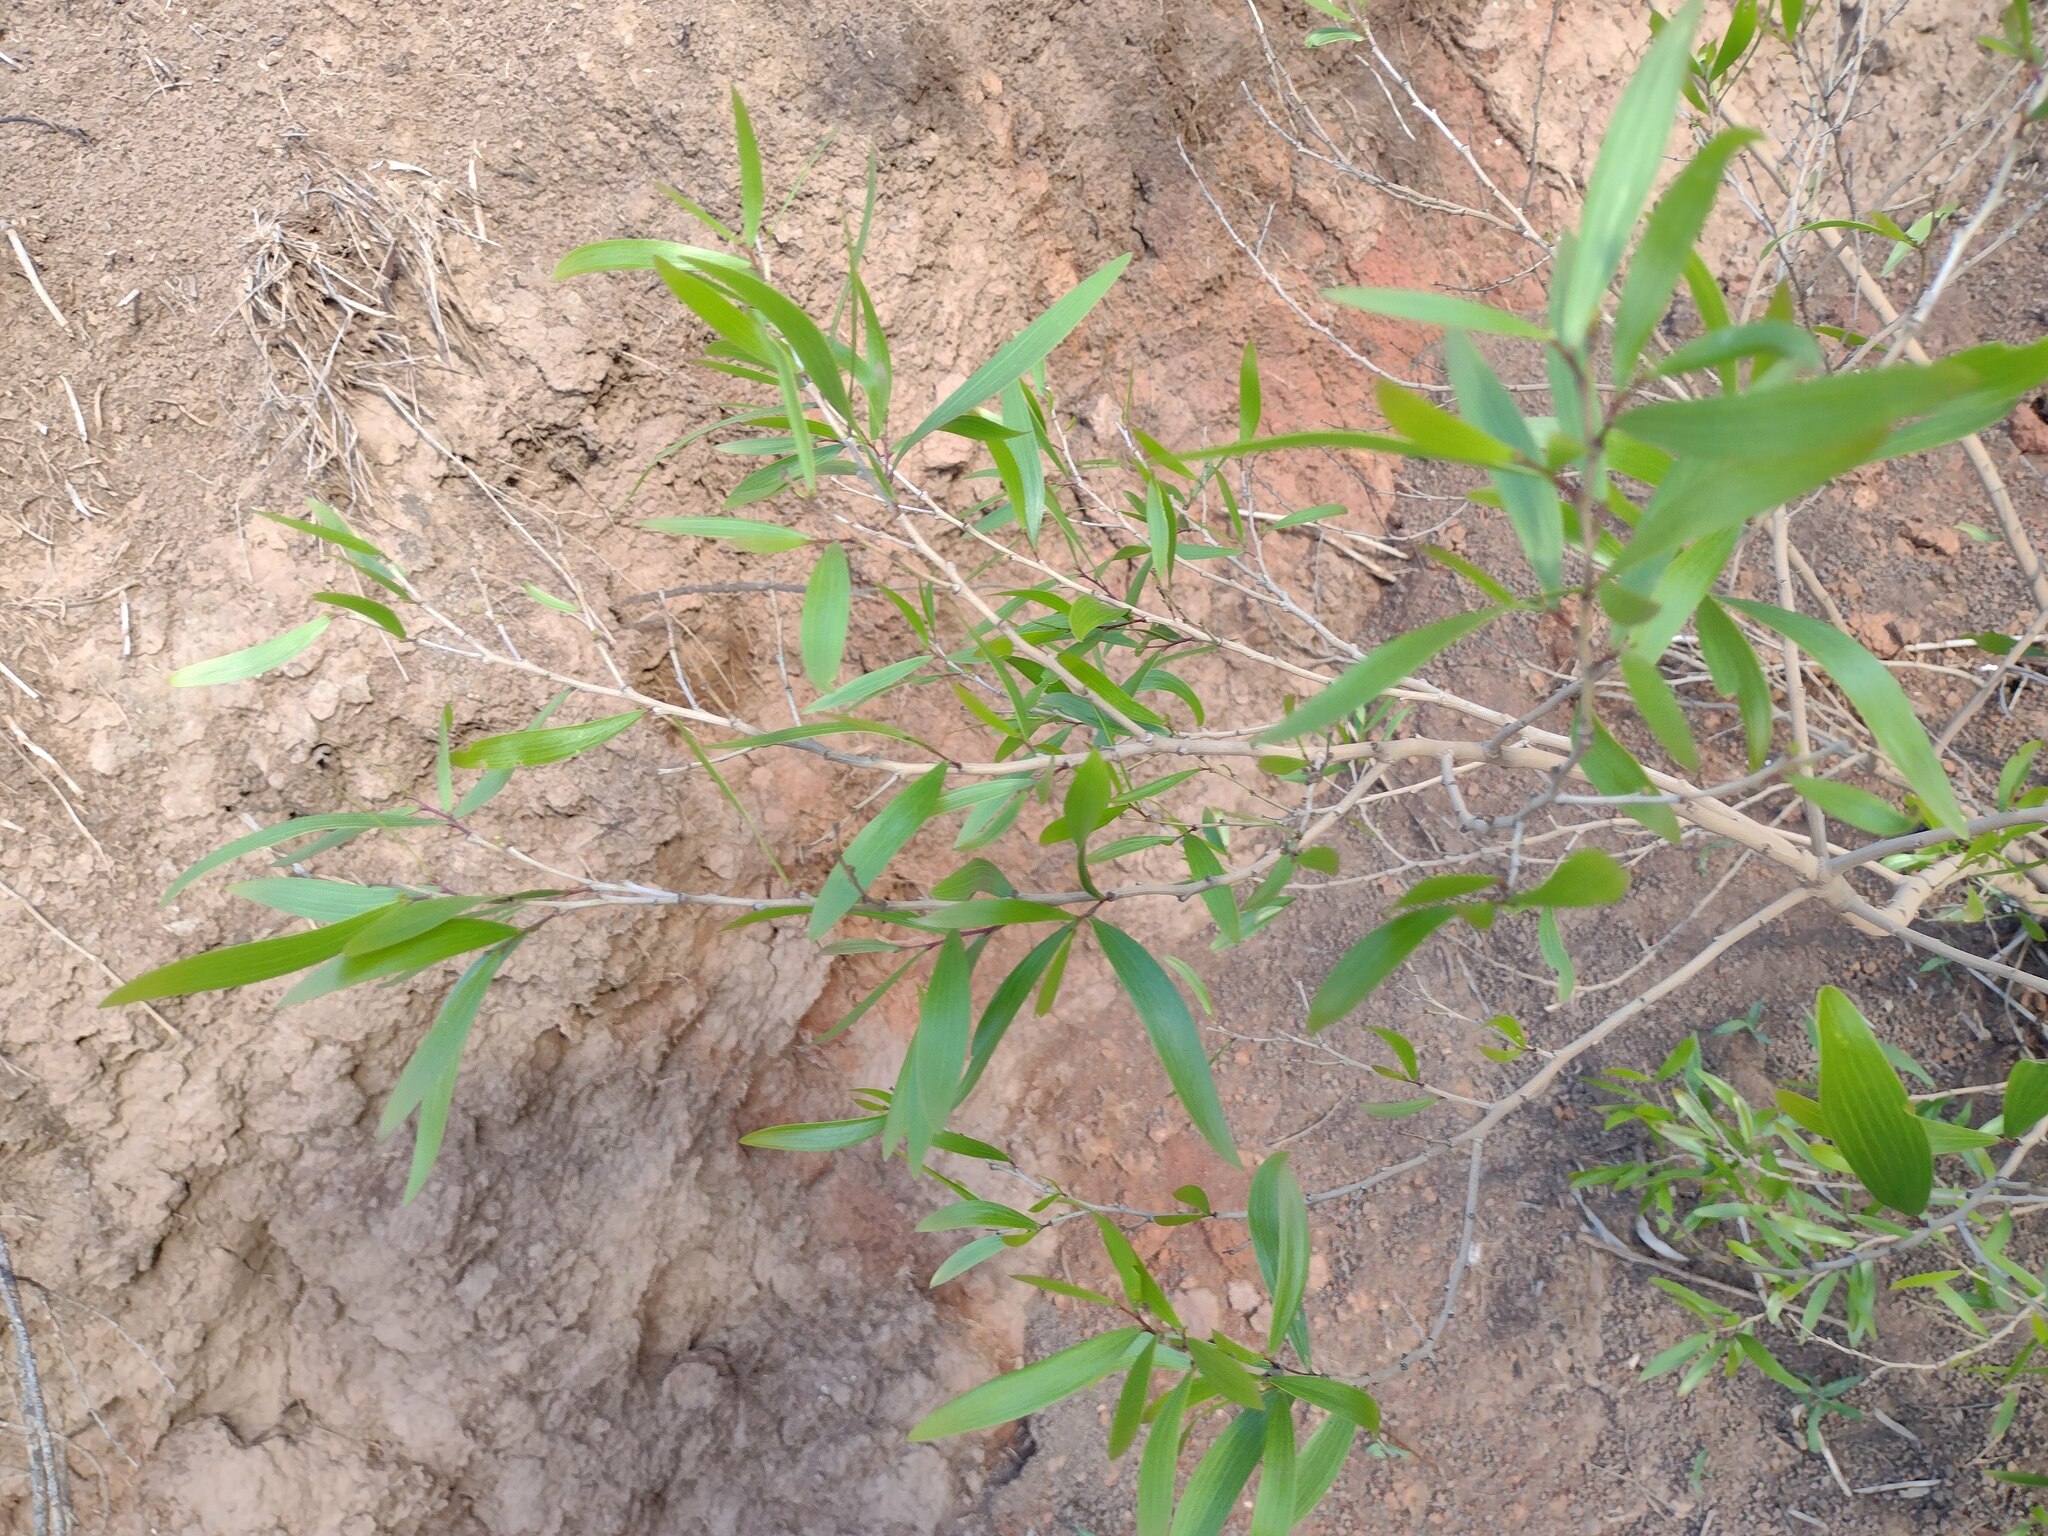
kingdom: Plantae
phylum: Tracheophyta
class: Magnoliopsida
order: Fabales
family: Fabaceae
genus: Acacia
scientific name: Acacia confusa
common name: Formosan koa
